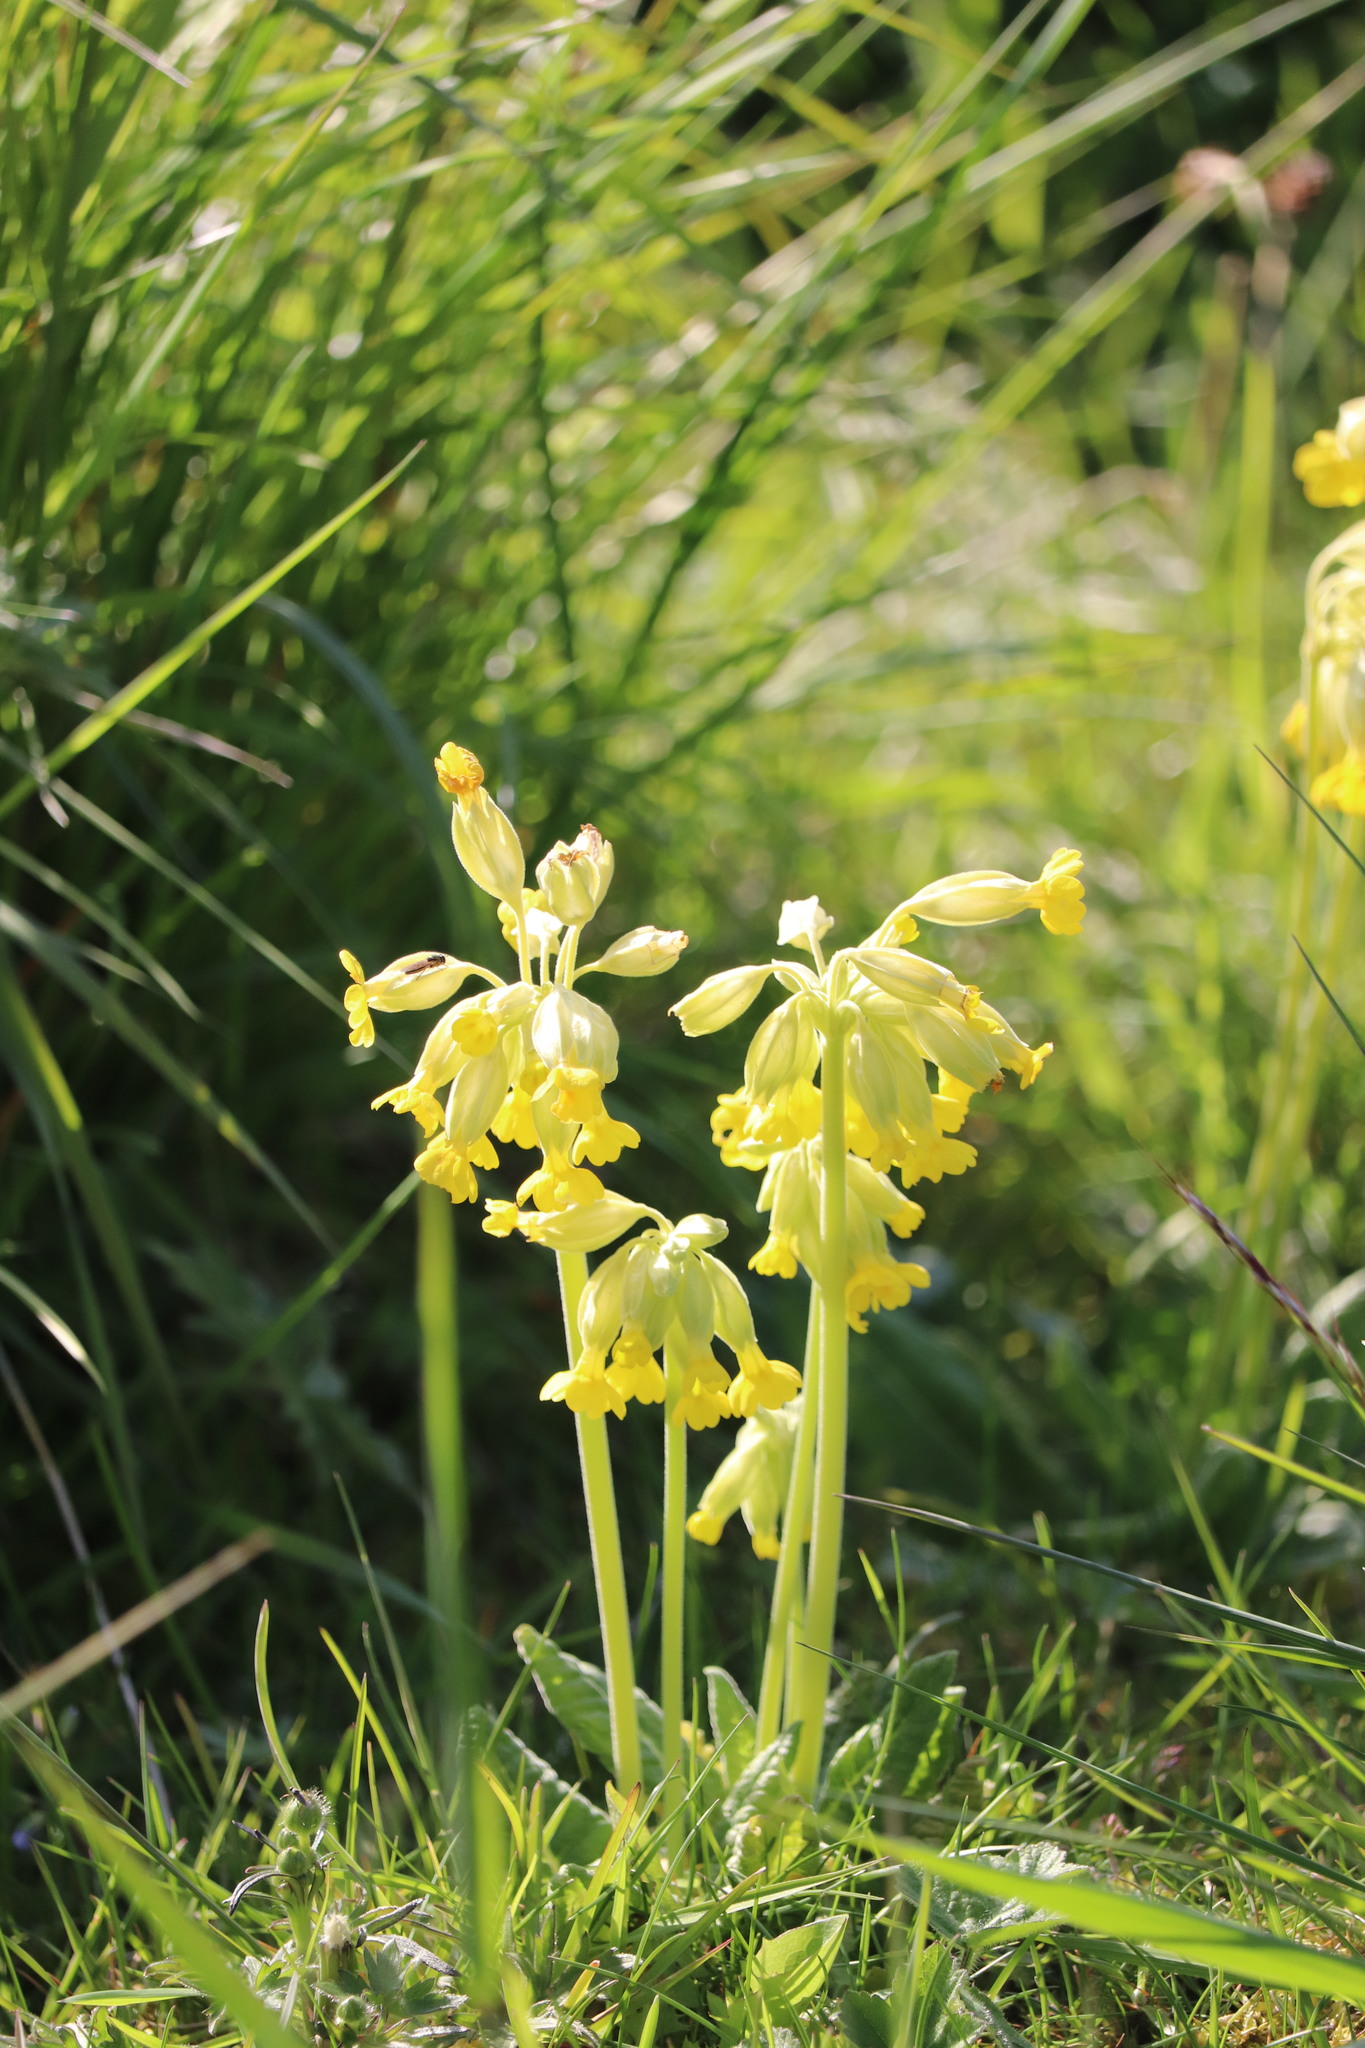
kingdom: Plantae
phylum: Tracheophyta
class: Magnoliopsida
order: Ericales
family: Primulaceae
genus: Primula
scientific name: Primula veris
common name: Cowslip
